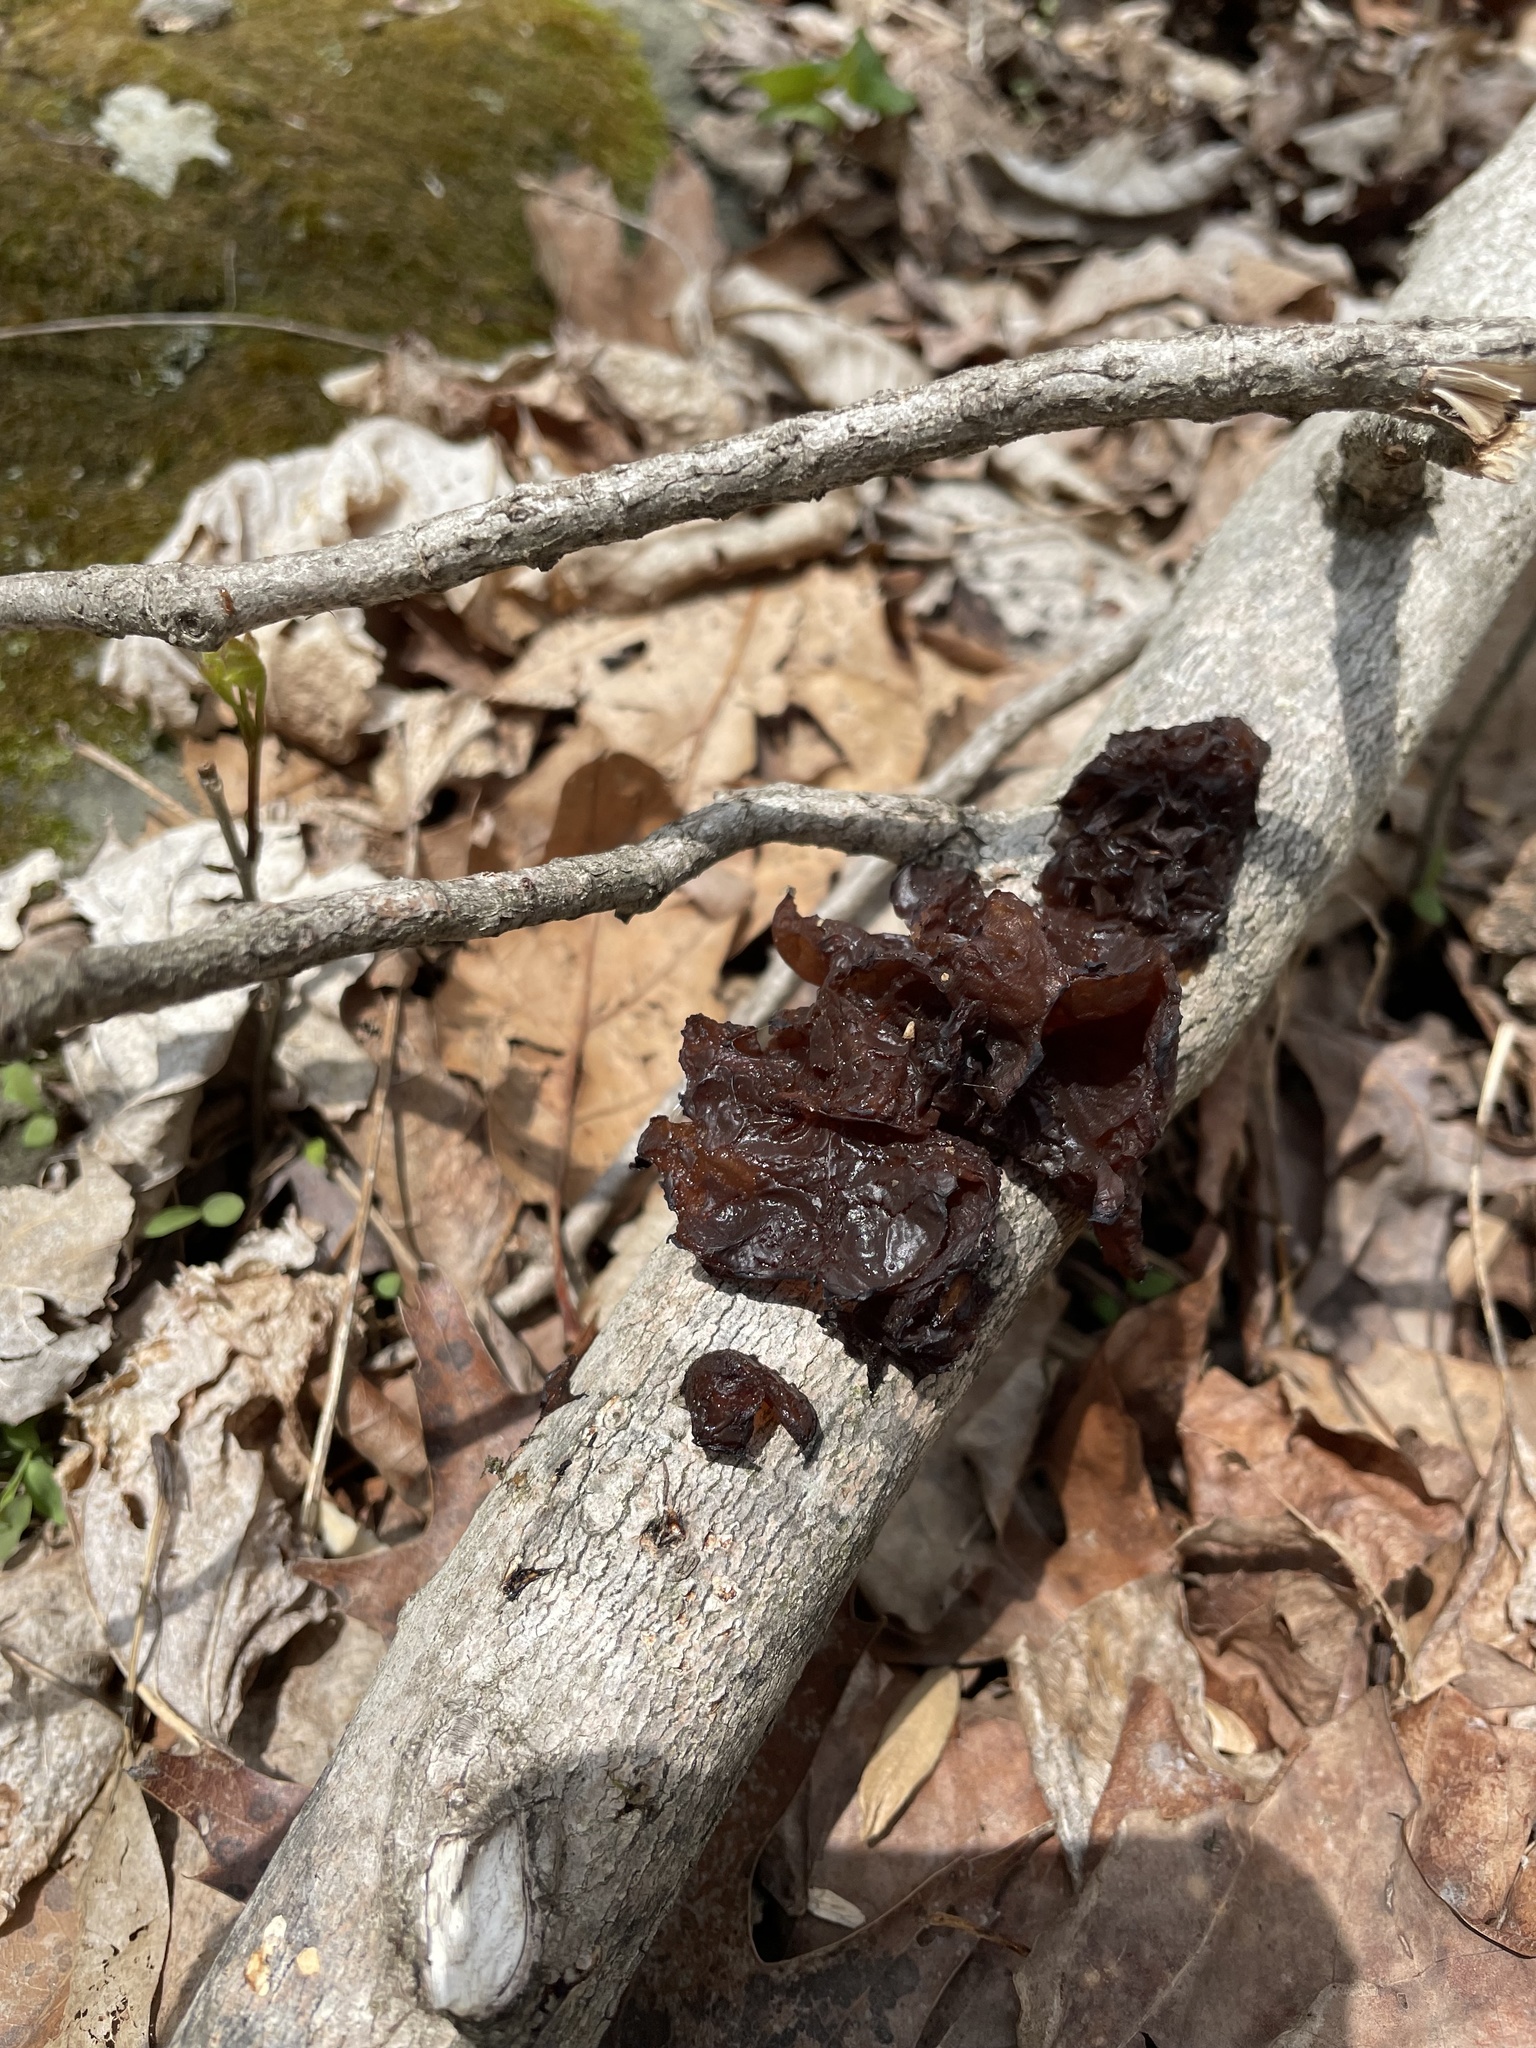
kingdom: Fungi
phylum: Basidiomycota
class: Agaricomycetes
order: Auriculariales
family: Auriculariaceae
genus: Exidia
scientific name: Exidia
